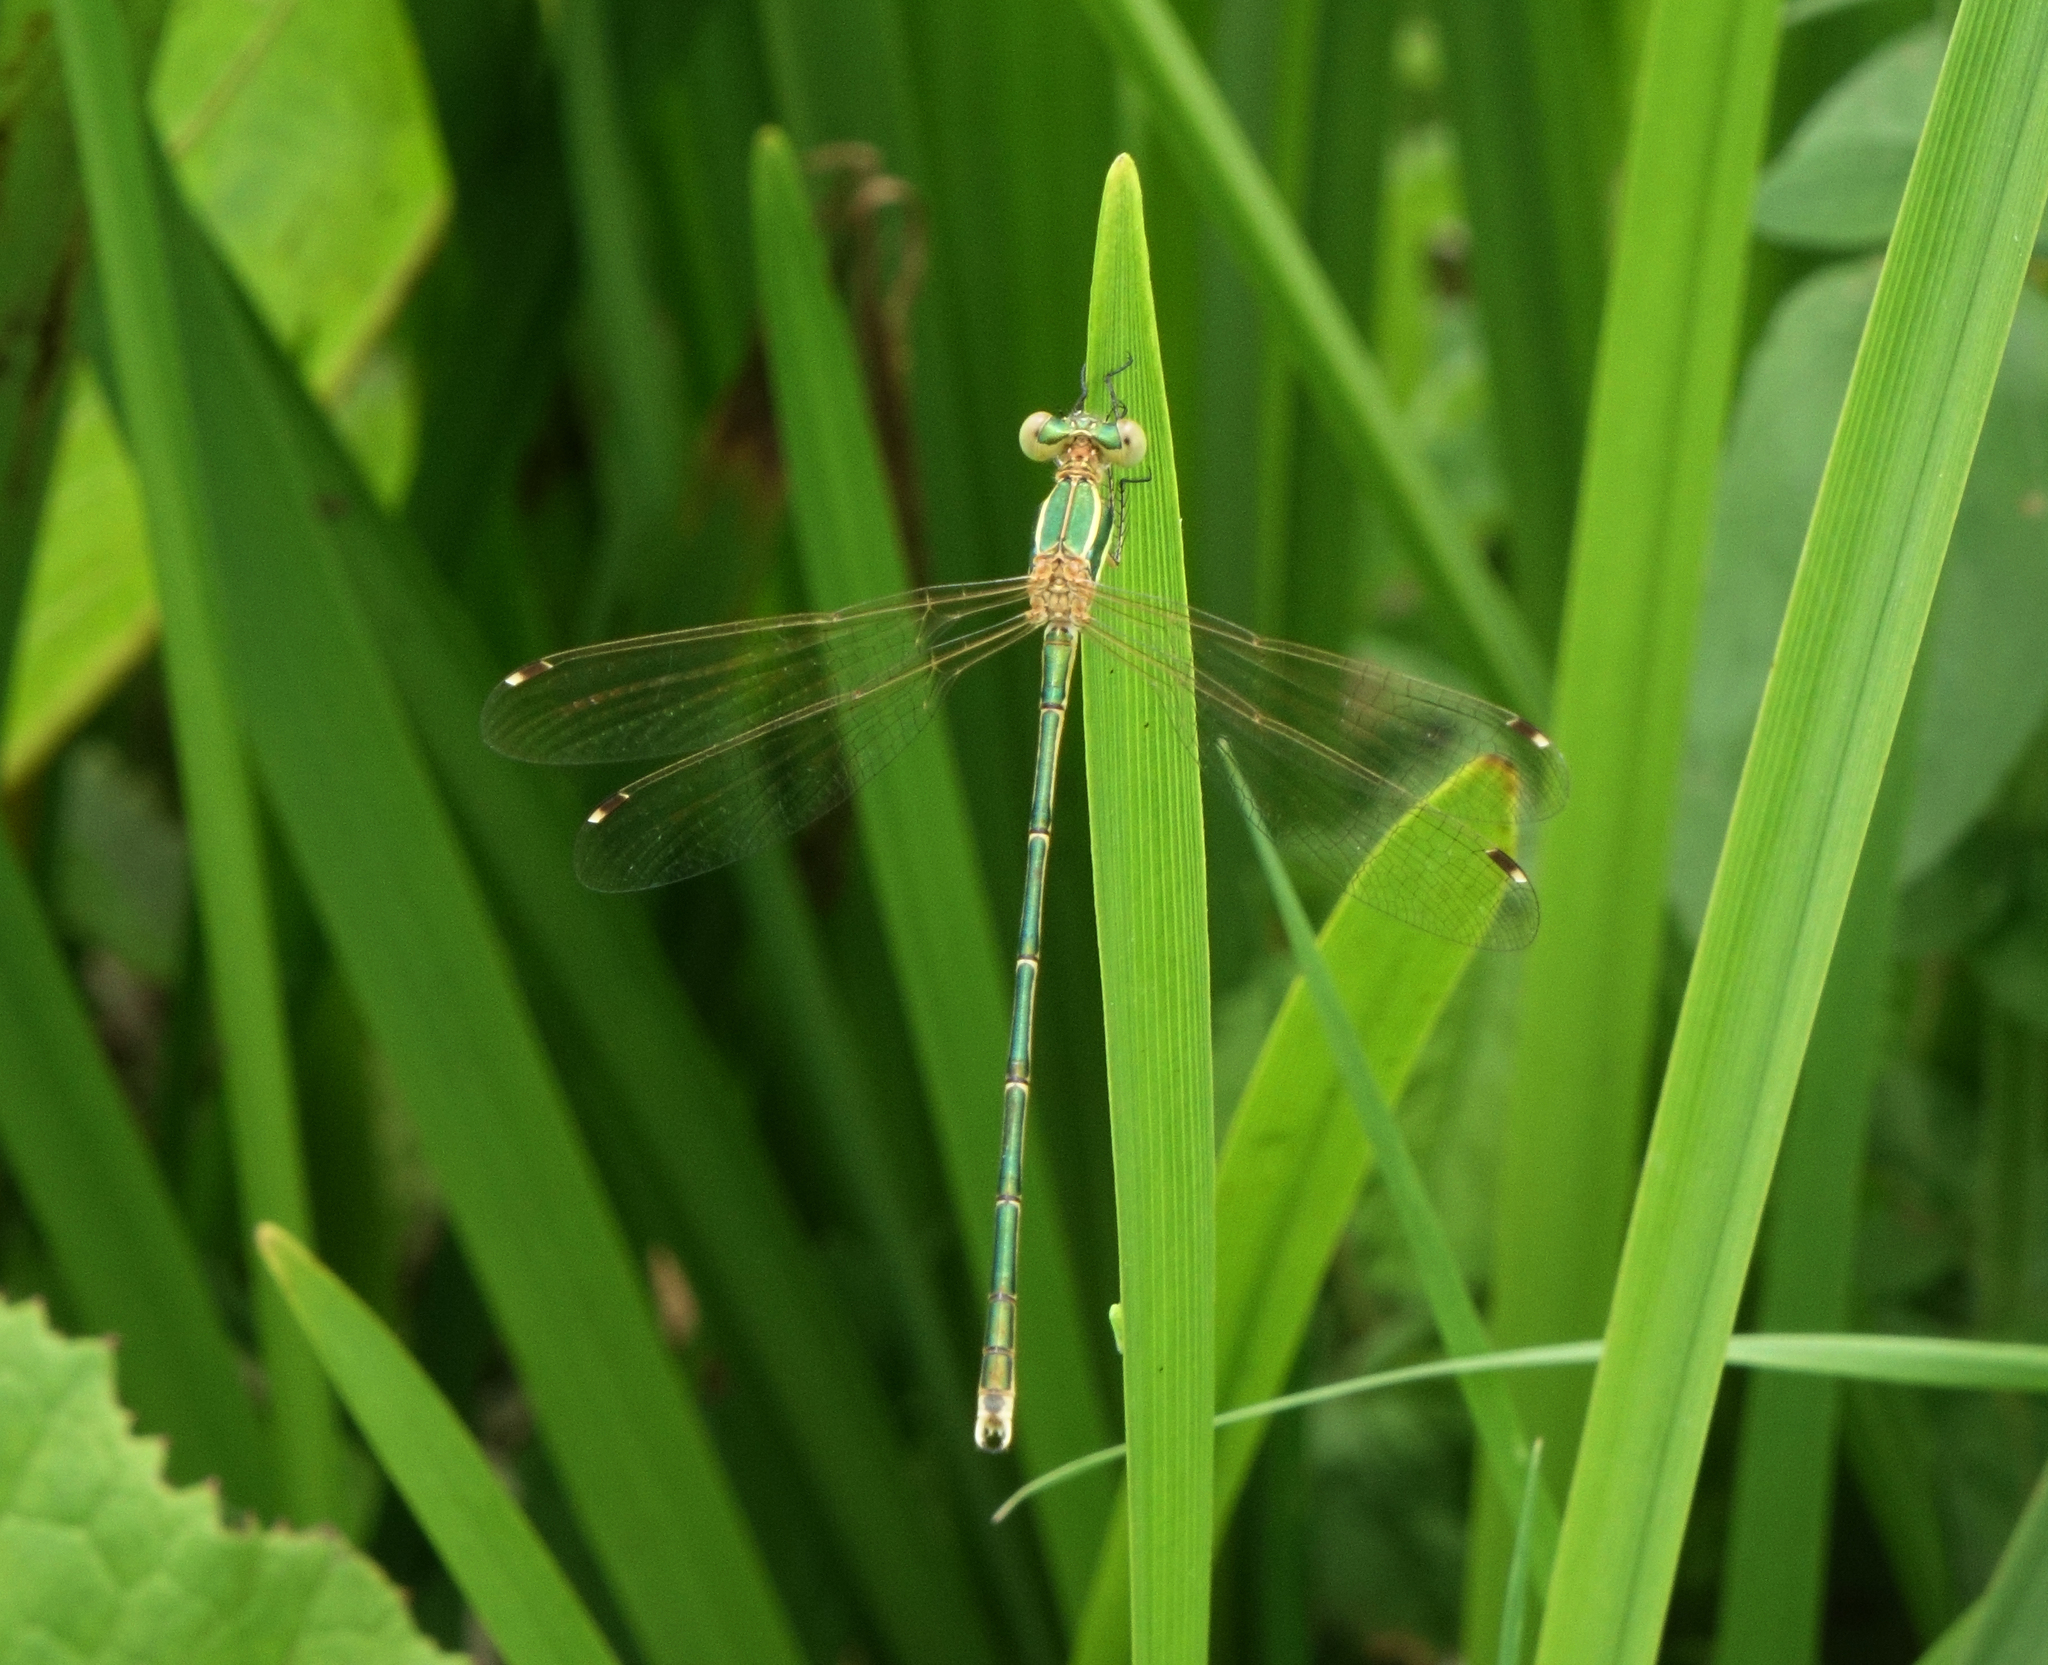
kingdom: Animalia
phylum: Arthropoda
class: Insecta
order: Odonata
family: Lestidae
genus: Lestes
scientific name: Lestes barbarus
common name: Migrant spreadwing
